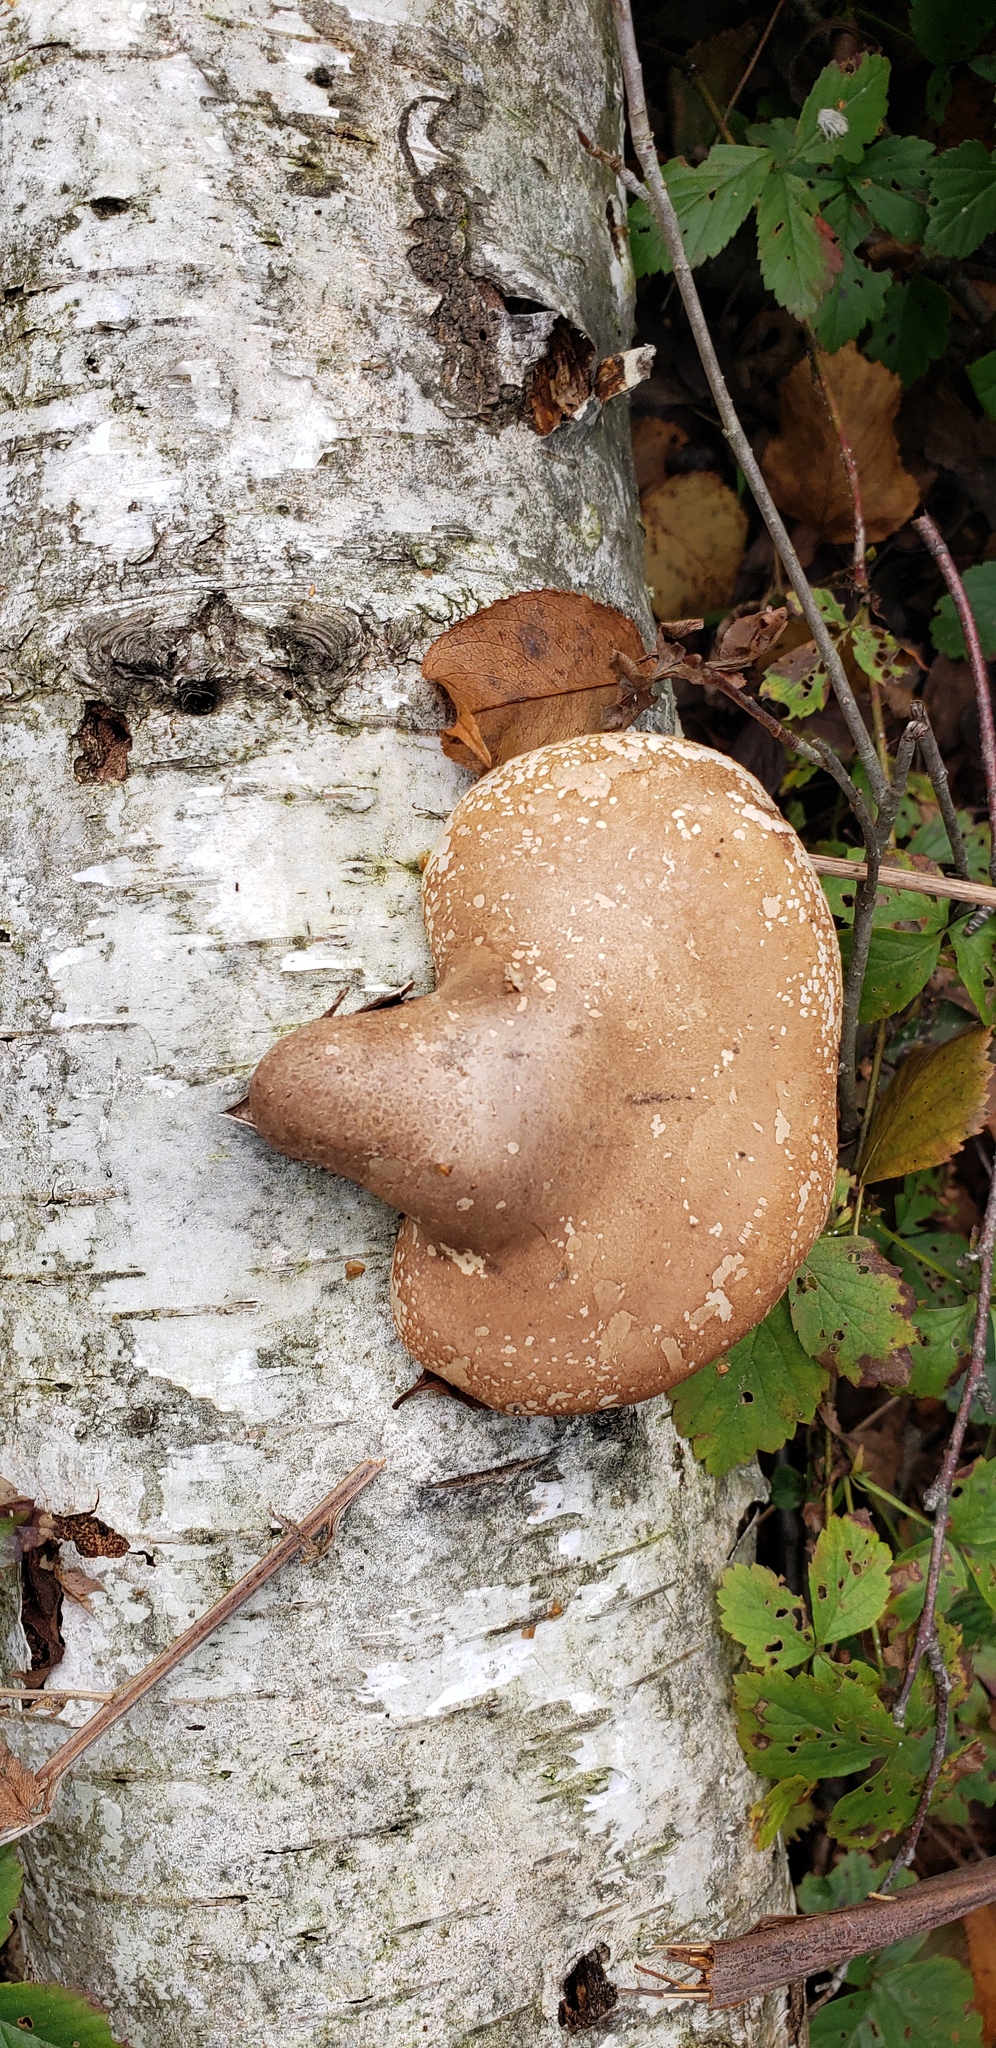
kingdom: Fungi
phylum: Basidiomycota
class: Agaricomycetes
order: Polyporales
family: Fomitopsidaceae
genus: Fomitopsis
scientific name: Fomitopsis betulina
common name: Birch polypore
